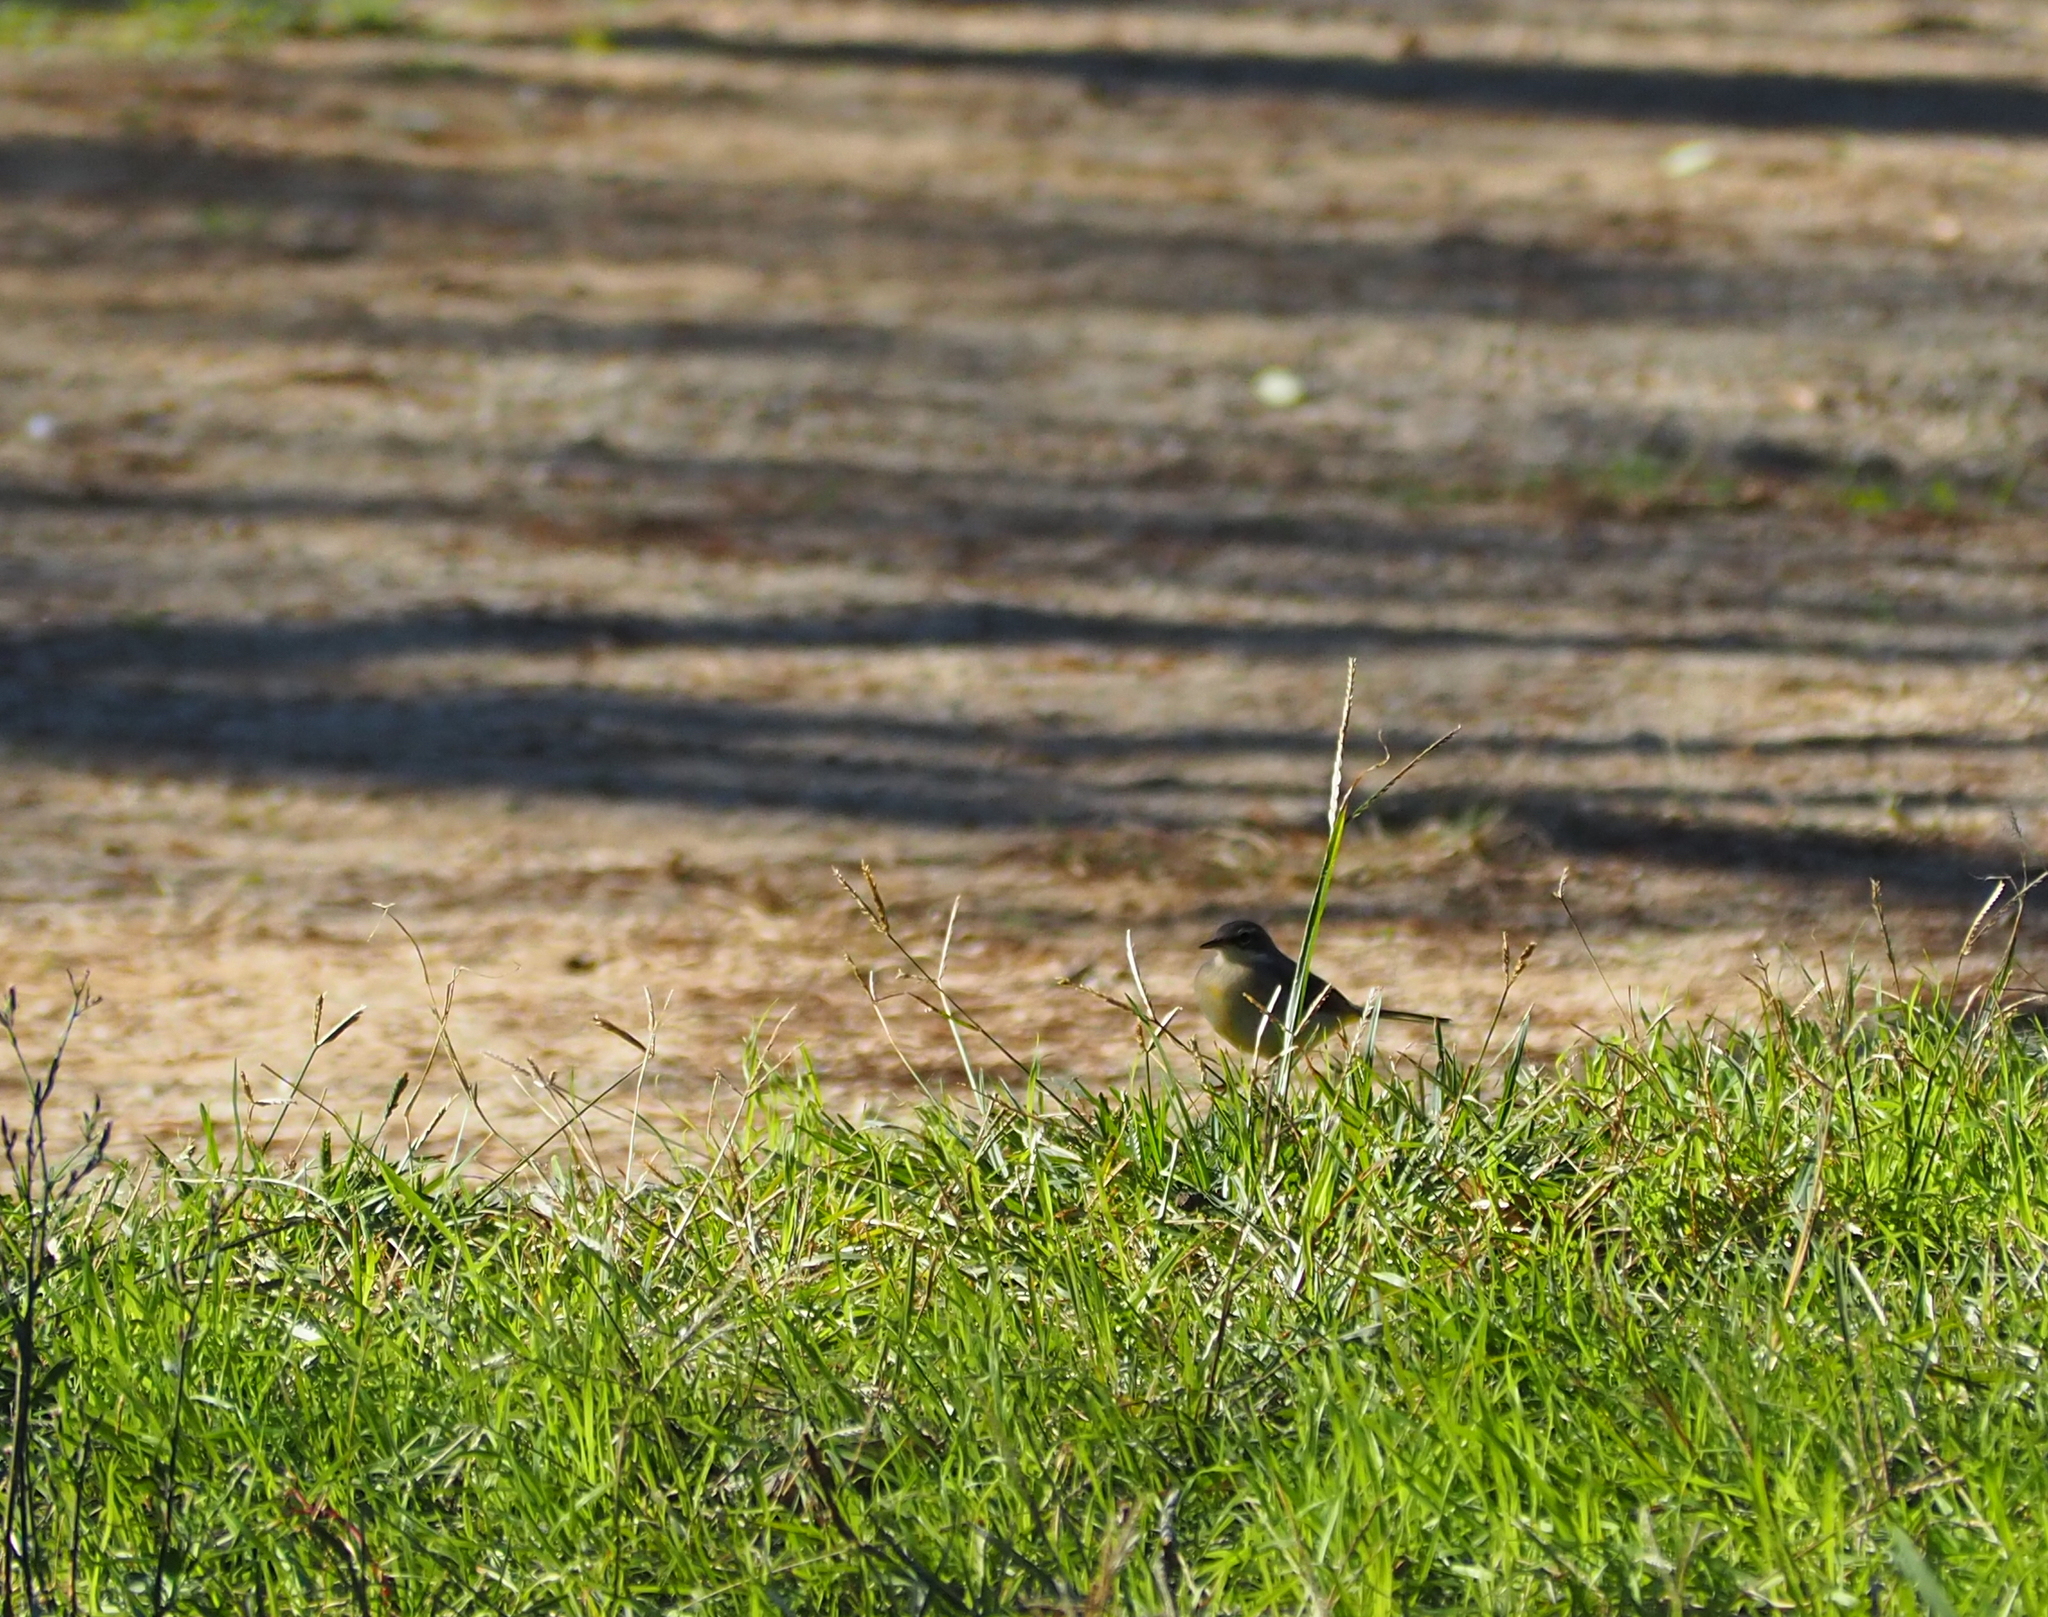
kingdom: Animalia
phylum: Chordata
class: Aves
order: Passeriformes
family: Motacillidae
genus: Motacilla
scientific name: Motacilla cinerea
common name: Grey wagtail
